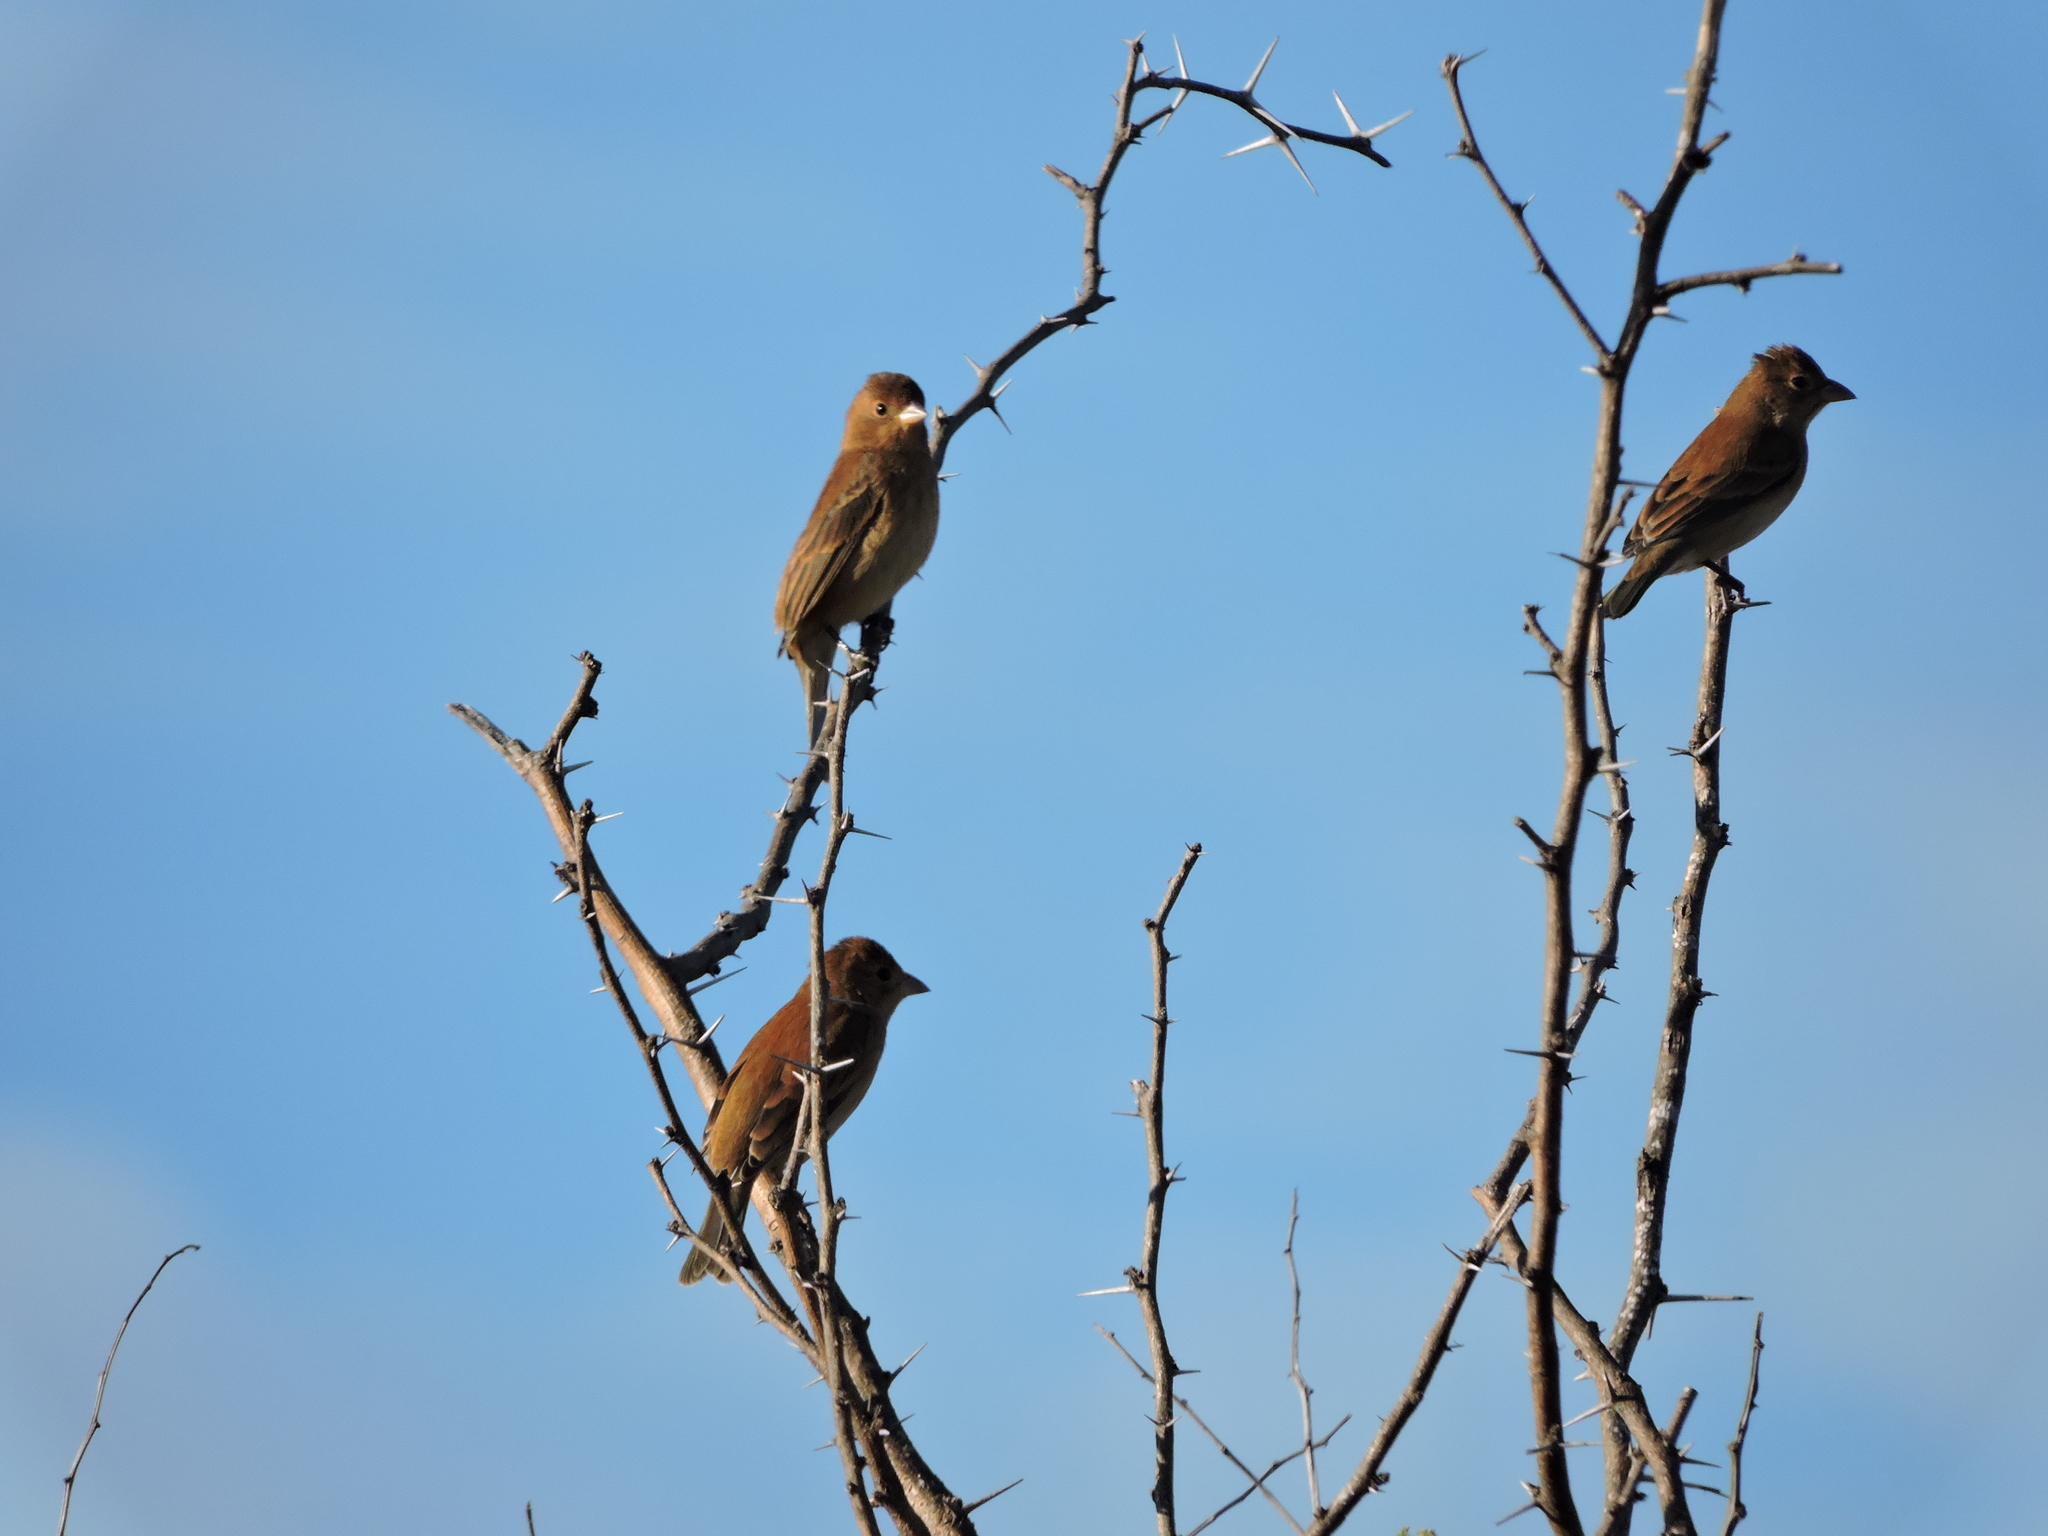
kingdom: Animalia
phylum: Chordata
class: Aves
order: Passeriformes
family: Cardinalidae
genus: Passerina
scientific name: Passerina cyanea
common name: Indigo bunting
